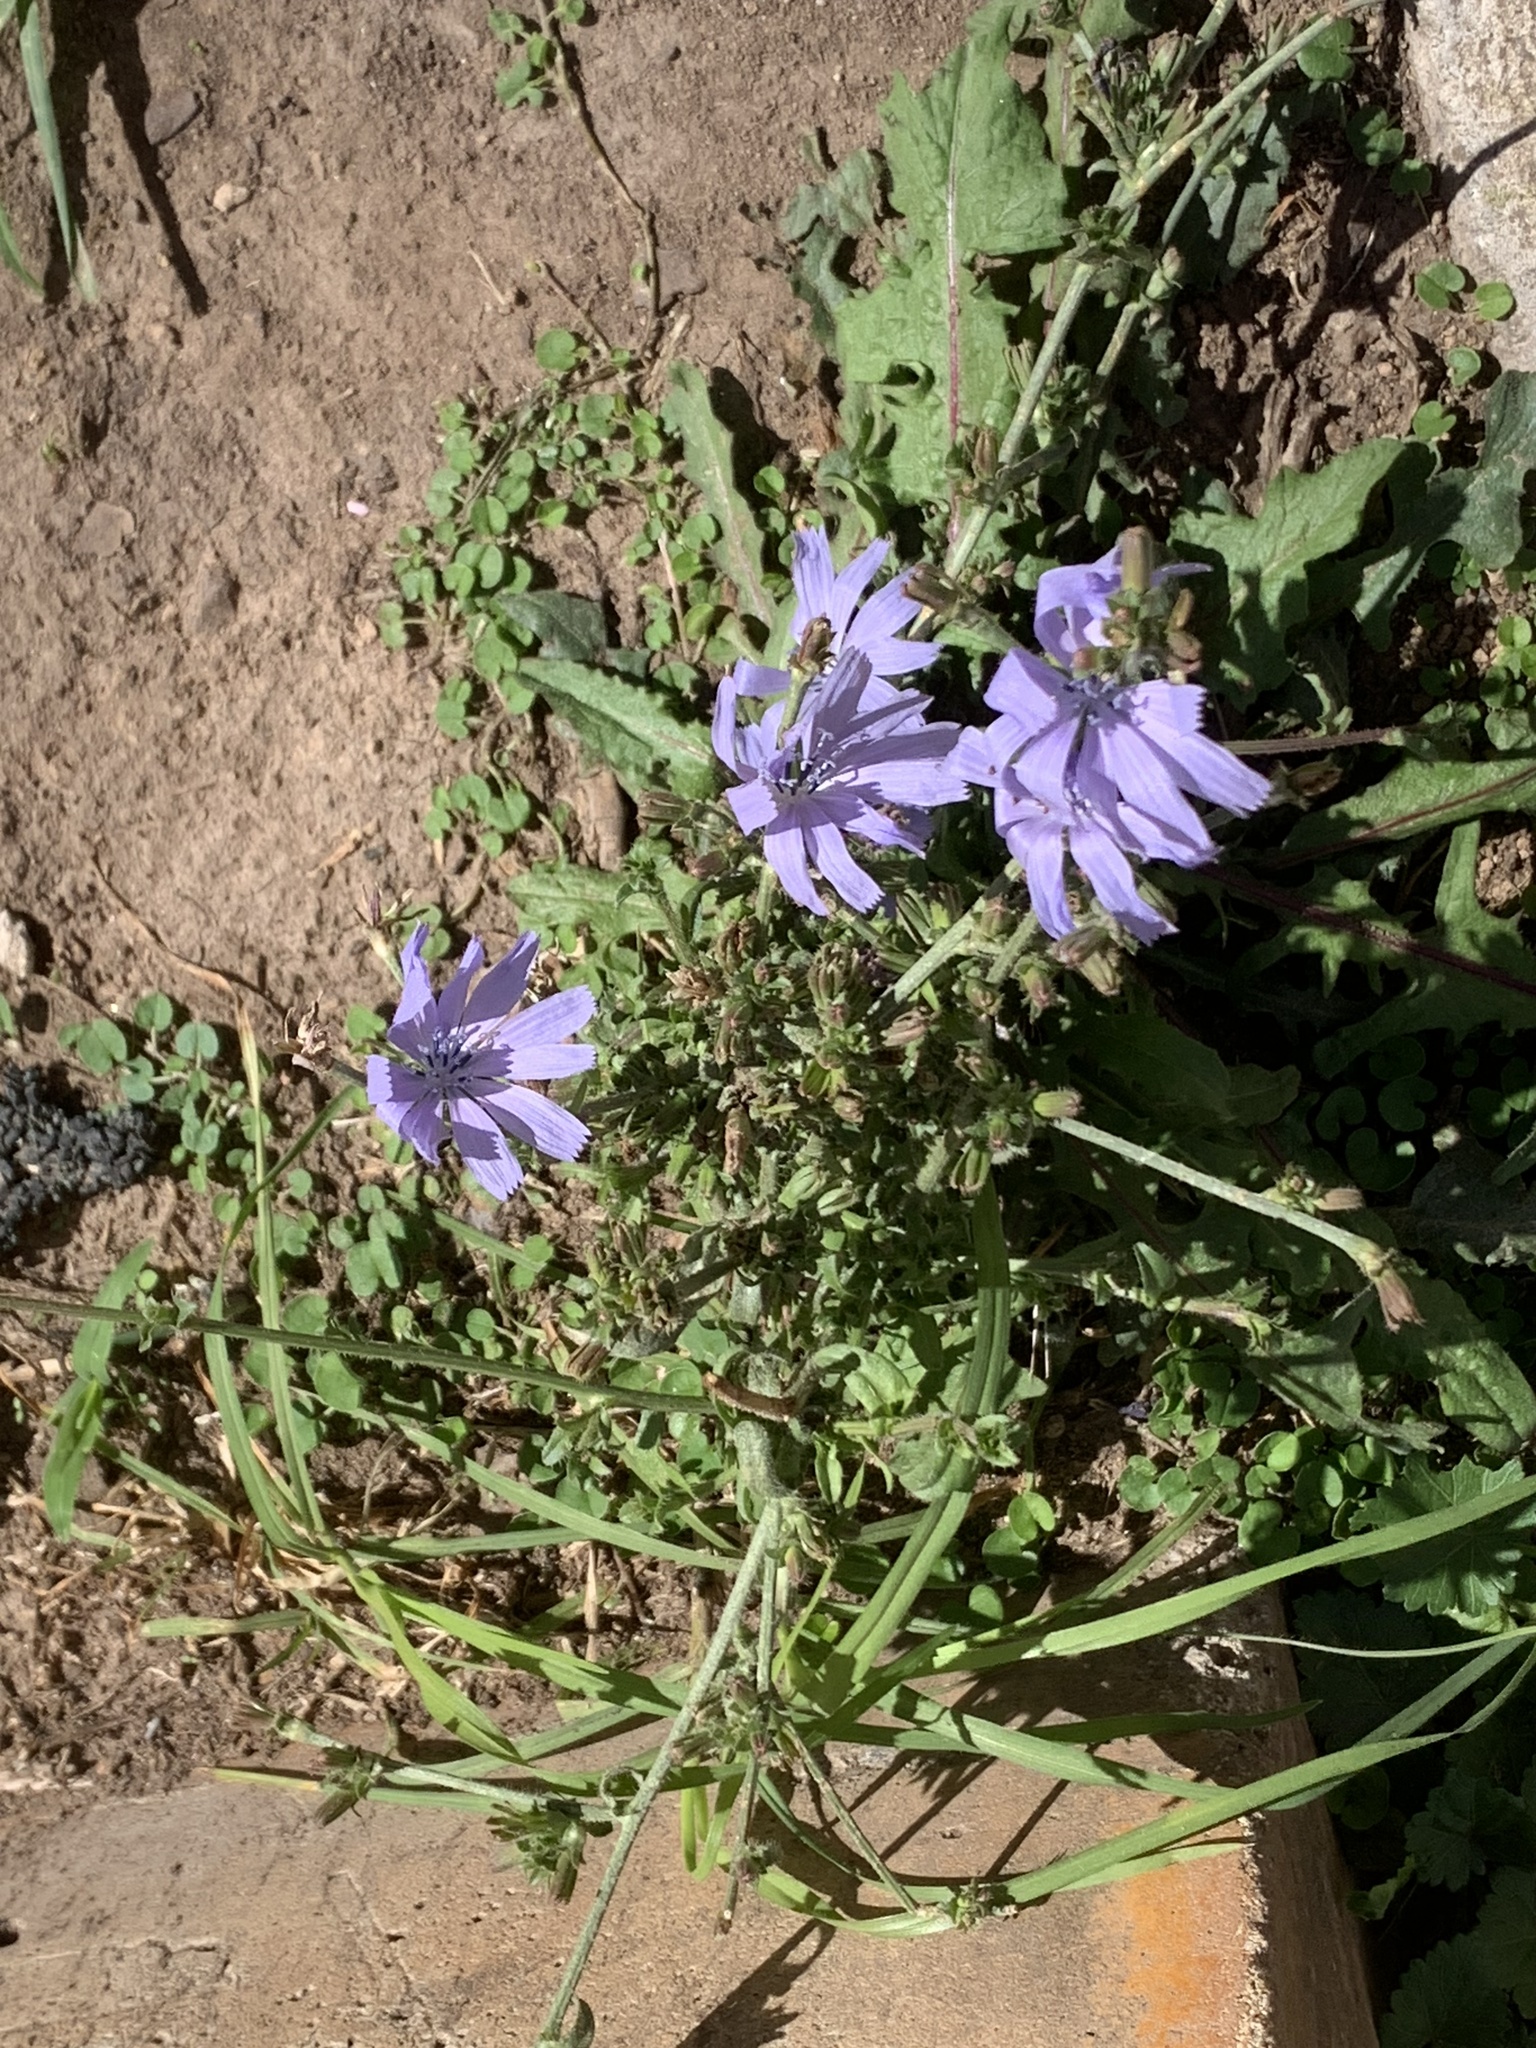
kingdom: Plantae
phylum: Tracheophyta
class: Magnoliopsida
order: Asterales
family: Asteraceae
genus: Cichorium
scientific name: Cichorium intybus
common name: Chicory
